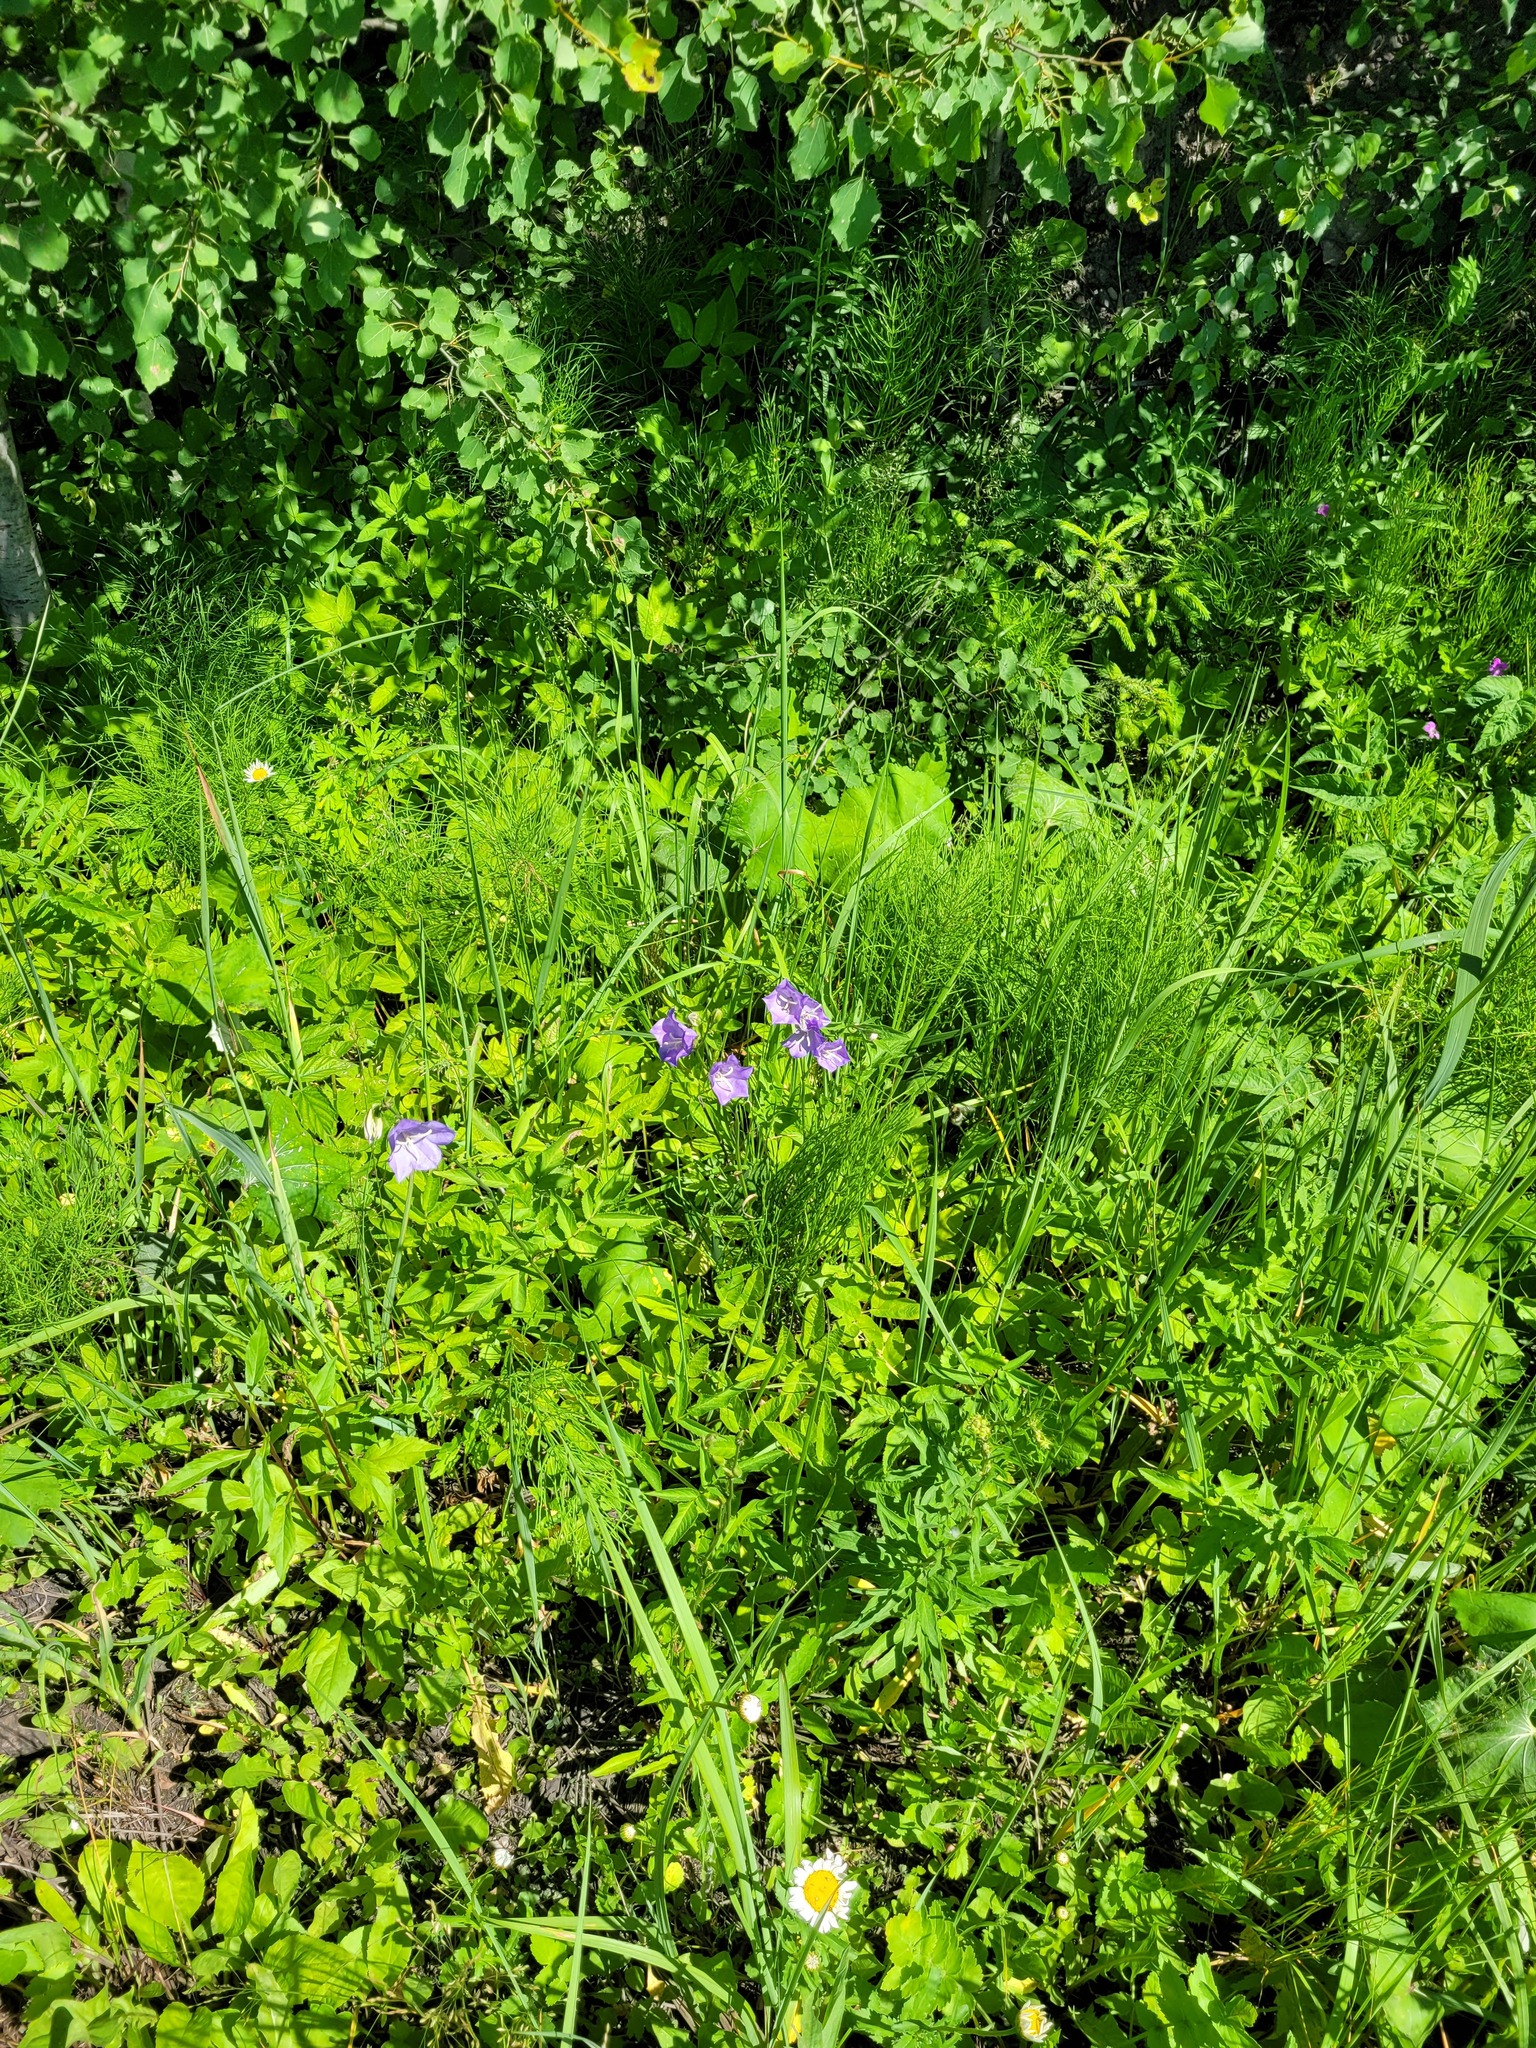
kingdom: Plantae
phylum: Tracheophyta
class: Magnoliopsida
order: Asterales
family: Campanulaceae
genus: Campanula
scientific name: Campanula persicifolia
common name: Peach-leaved bellflower
